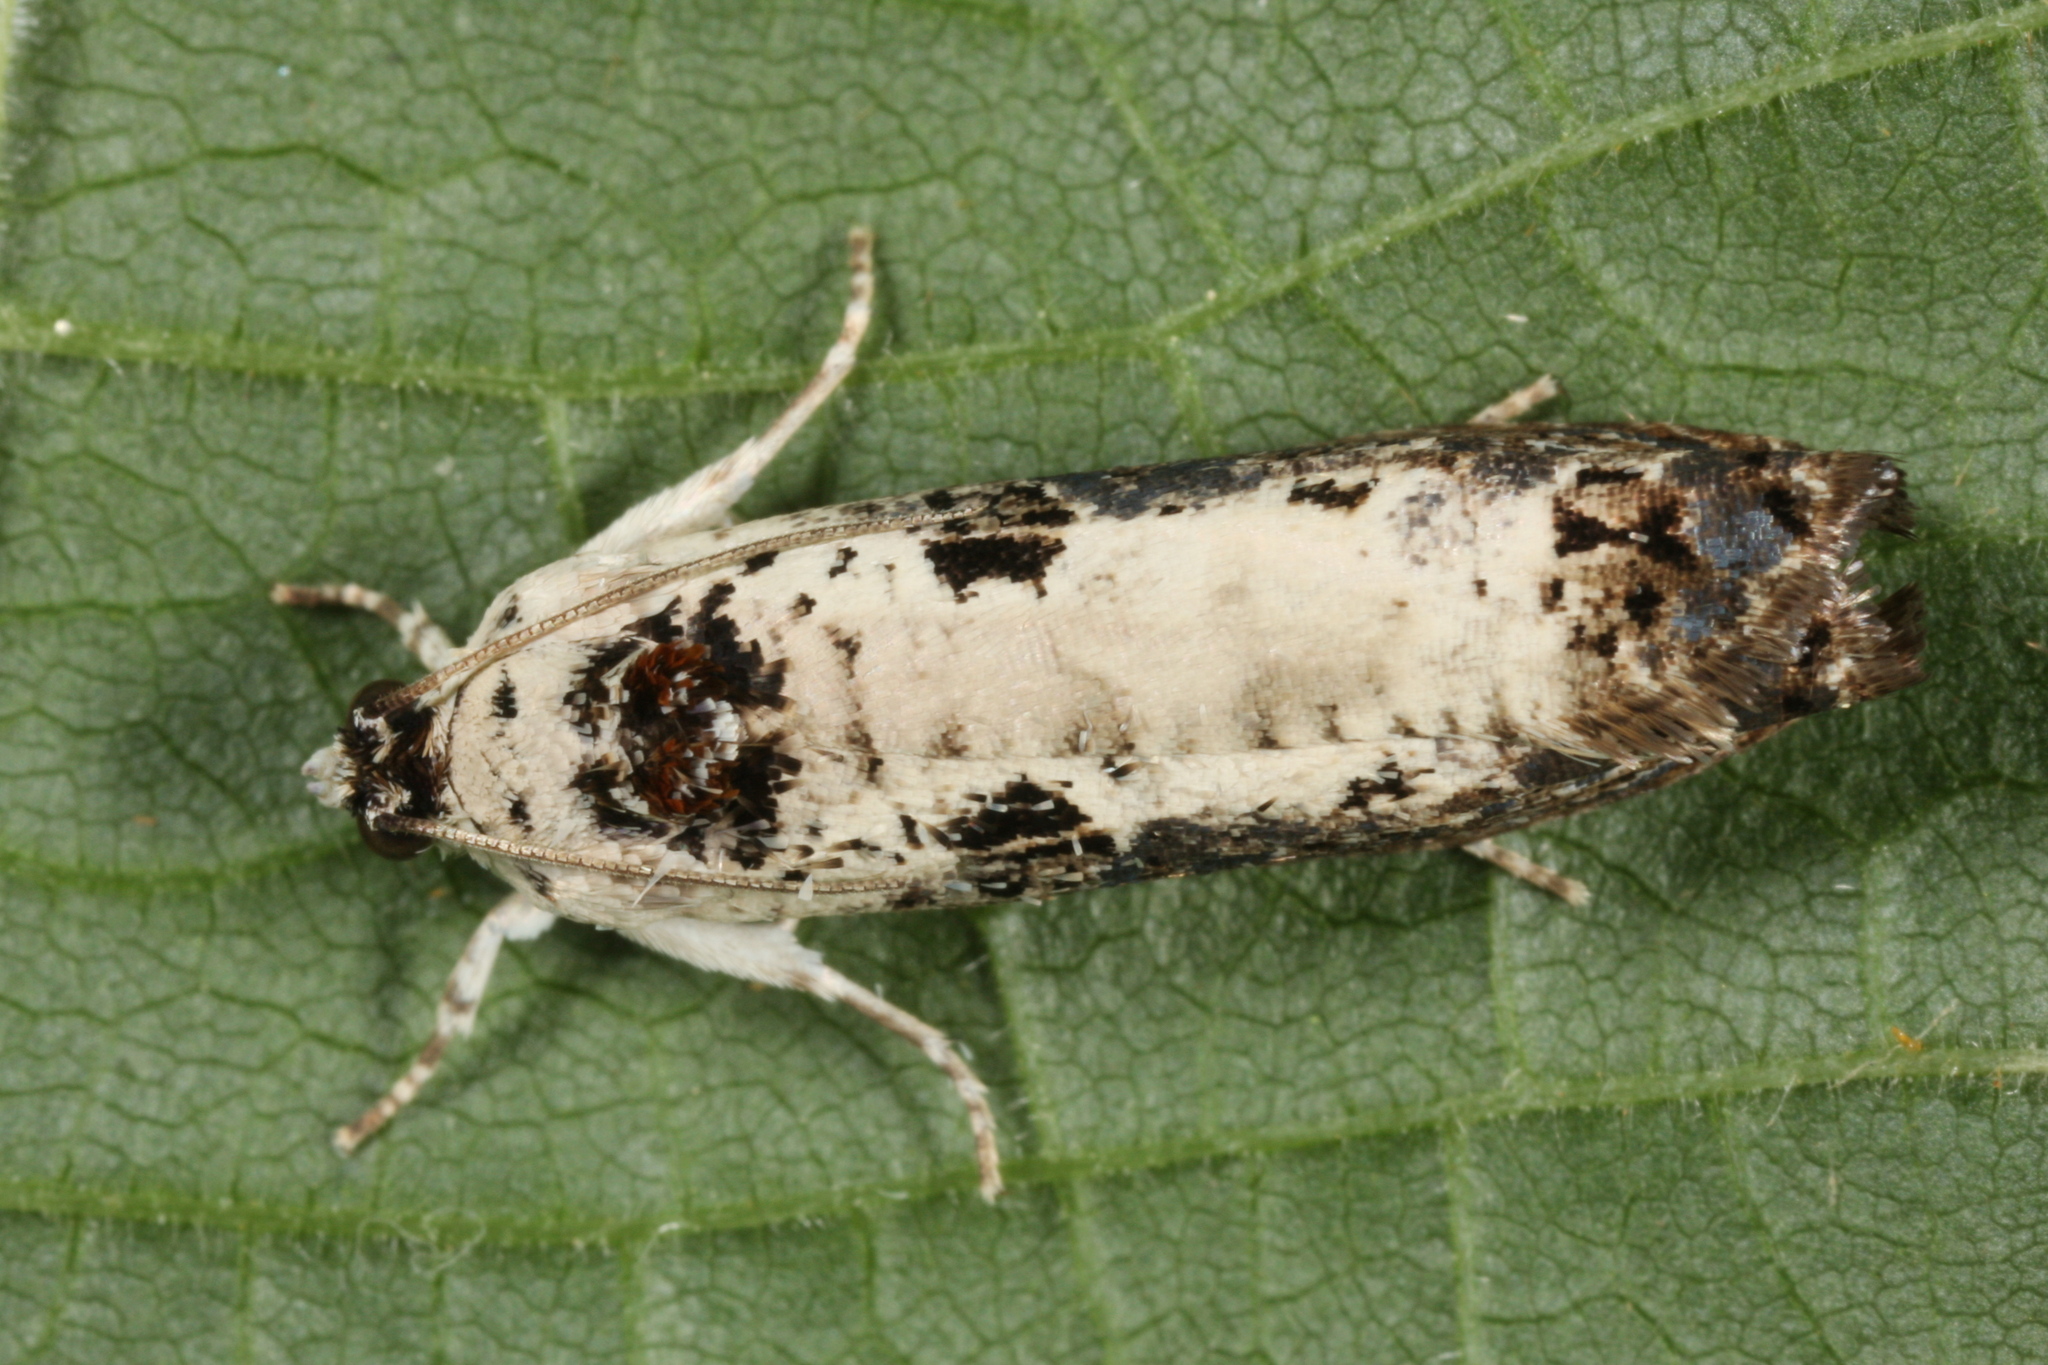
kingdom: Animalia
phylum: Arthropoda
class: Insecta
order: Lepidoptera
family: Tortricidae
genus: Hedya
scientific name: Hedya salicella
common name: Large tortricid moth
